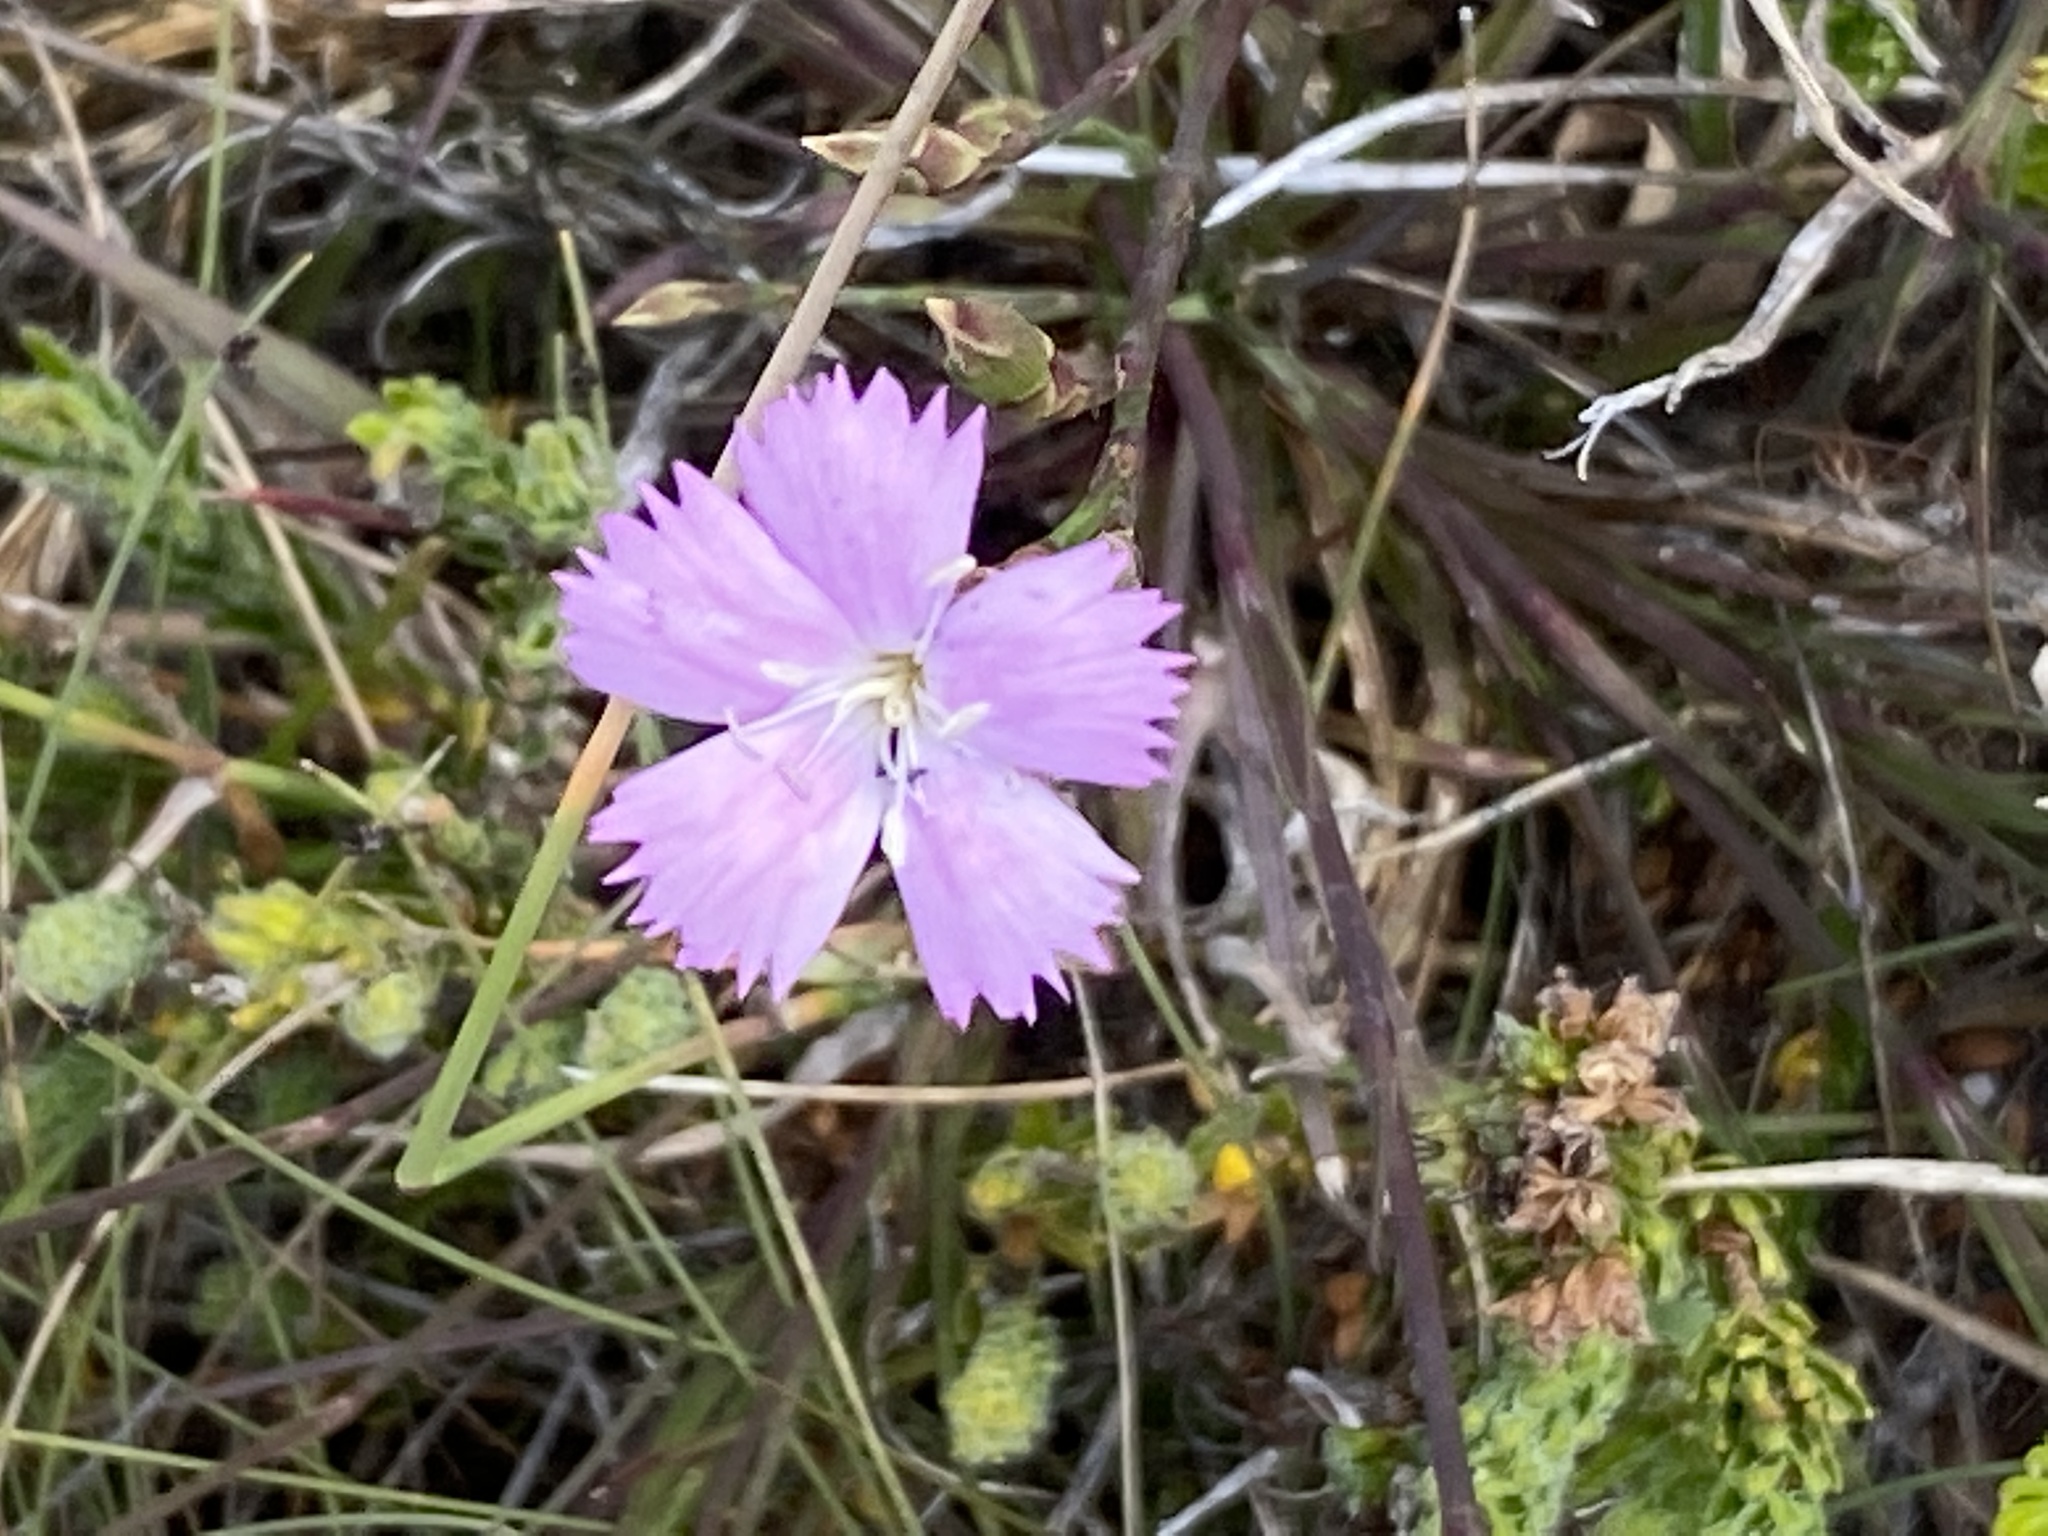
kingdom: Plantae
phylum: Tracheophyta
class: Magnoliopsida
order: Caryophyllales
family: Caryophyllaceae
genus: Dianthus
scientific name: Dianthus albens
